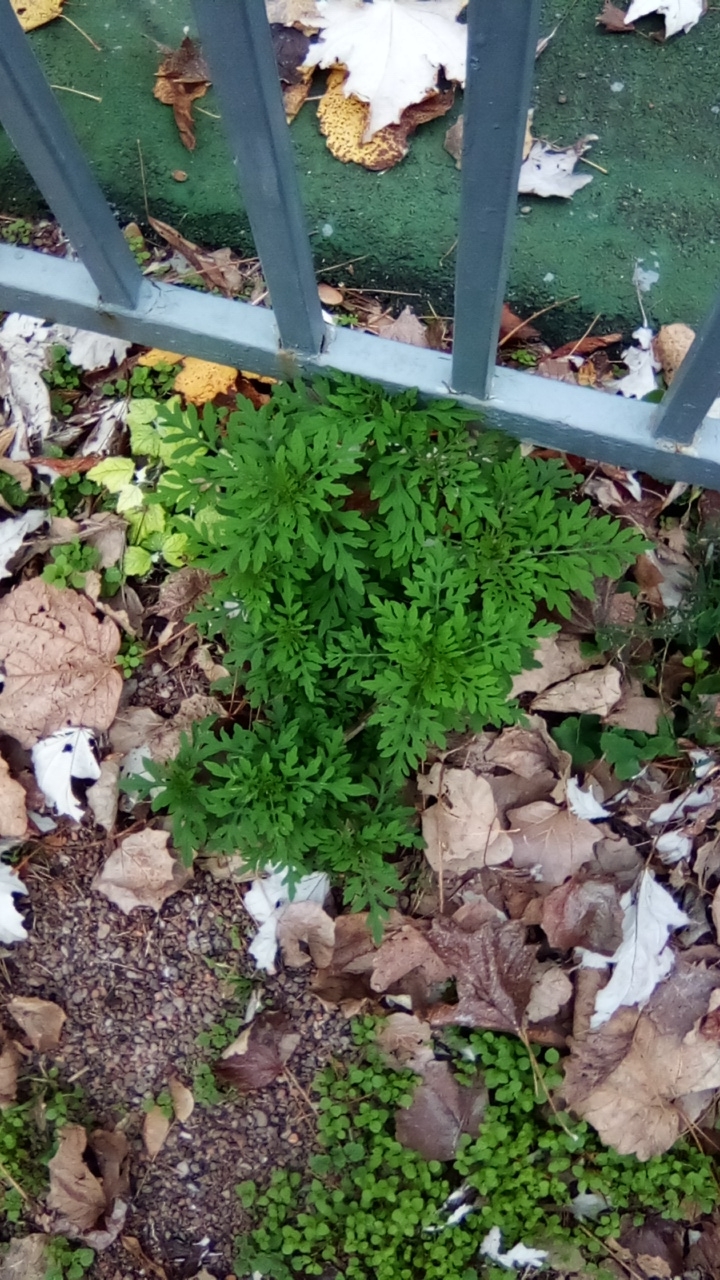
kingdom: Plantae
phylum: Tracheophyta
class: Magnoliopsida
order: Asterales
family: Asteraceae
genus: Ambrosia
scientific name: Ambrosia artemisiifolia
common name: Annual ragweed
